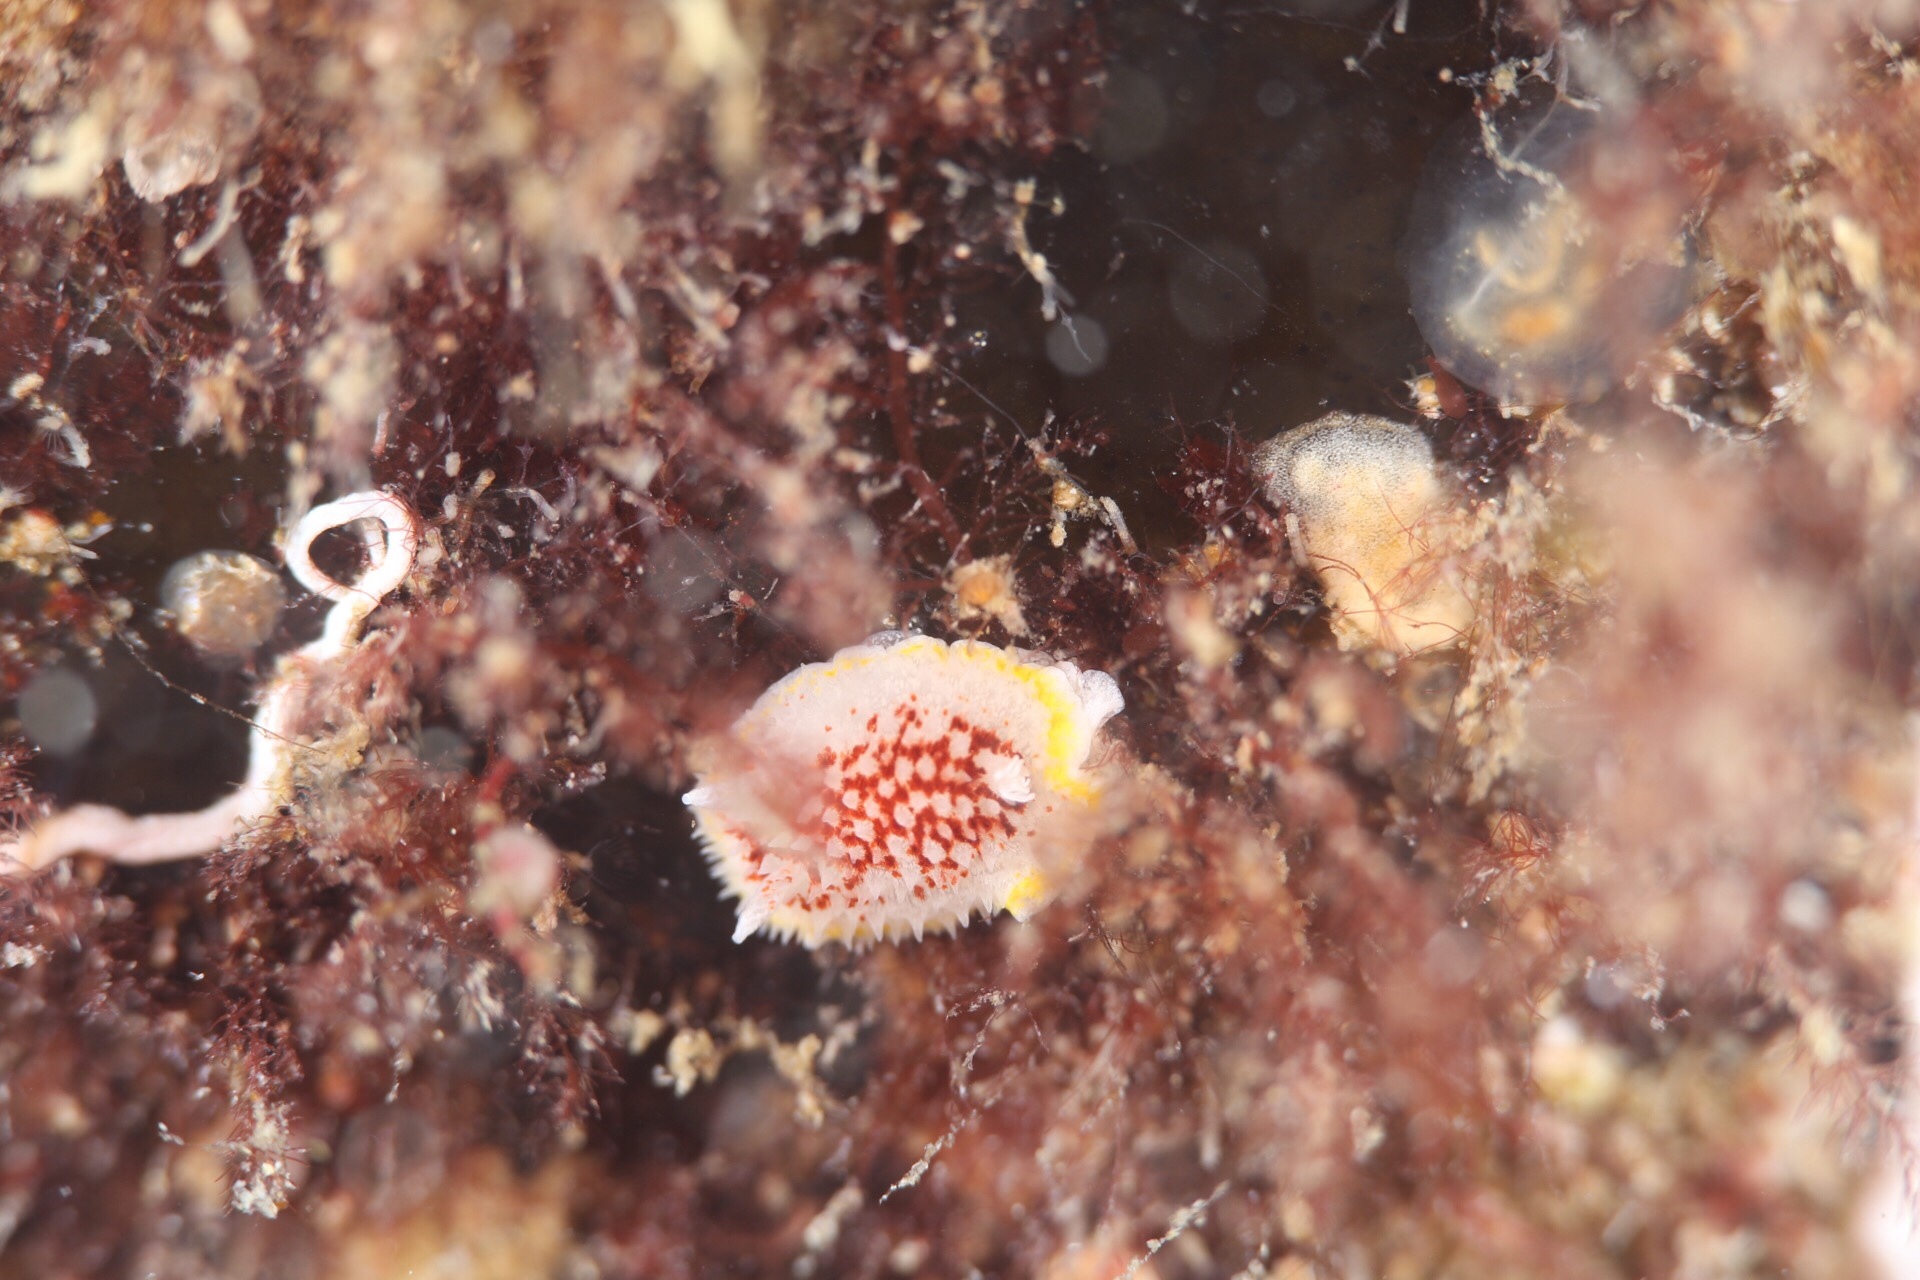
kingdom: Animalia
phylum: Mollusca
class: Gastropoda
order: Nudibranchia
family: Calycidorididae
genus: Diaphorodoris
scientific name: Diaphorodoris luteocincta
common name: Fried egg nudibranch
